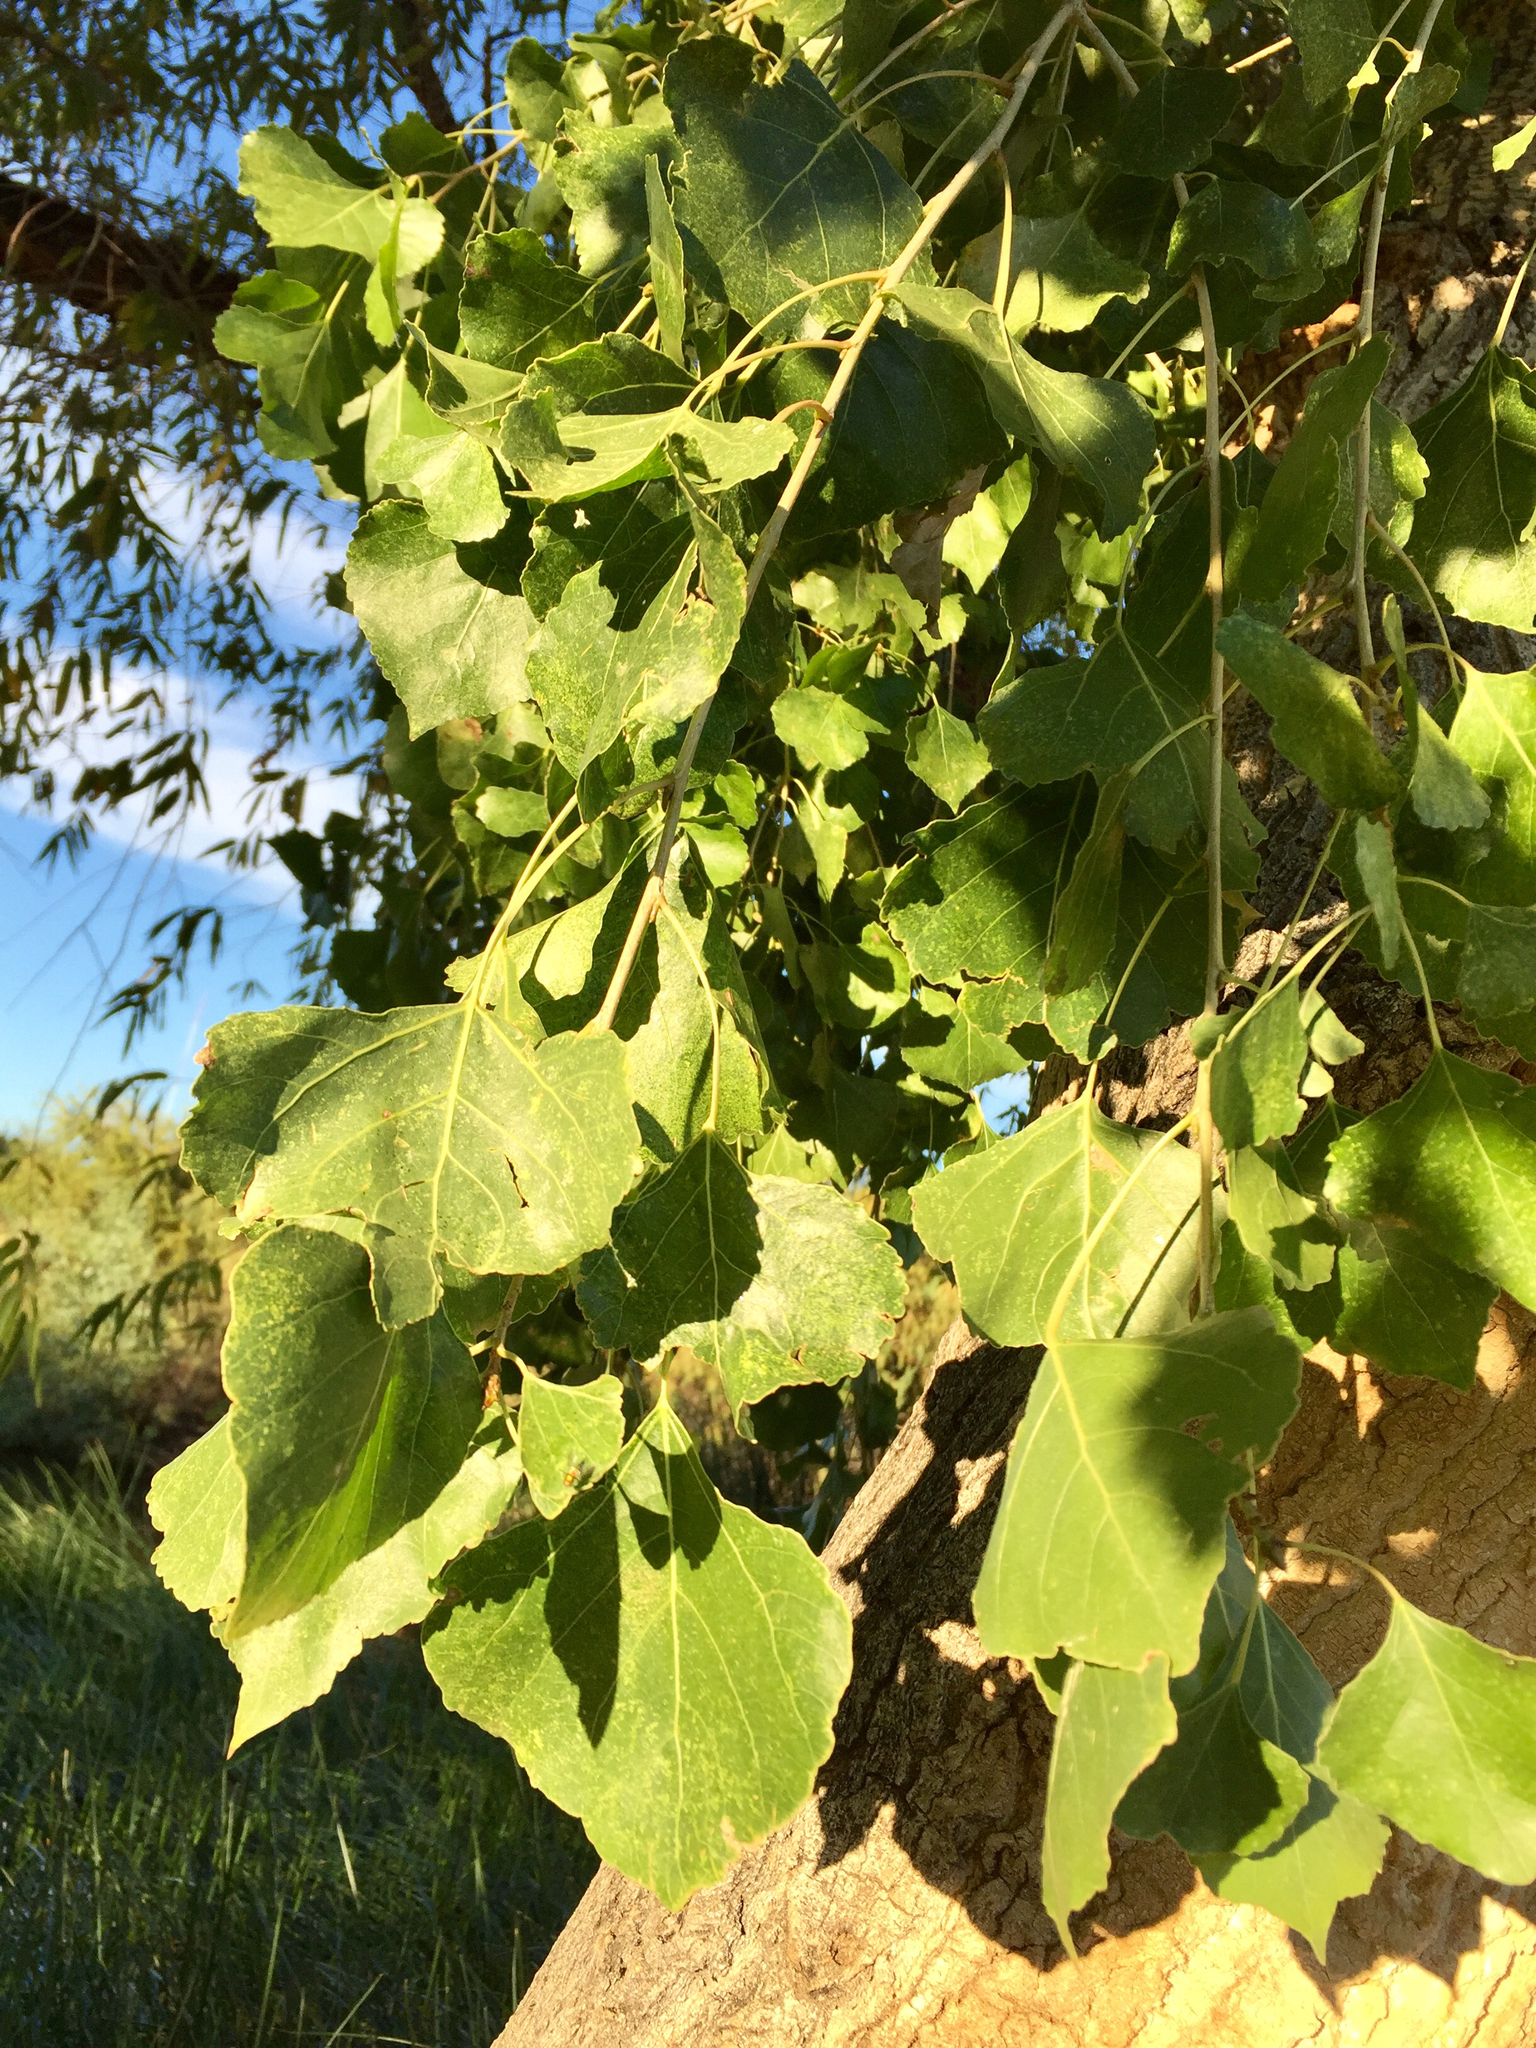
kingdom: Plantae
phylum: Tracheophyta
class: Magnoliopsida
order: Malpighiales
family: Salicaceae
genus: Populus
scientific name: Populus fremontii
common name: Fremont's cottonwood
